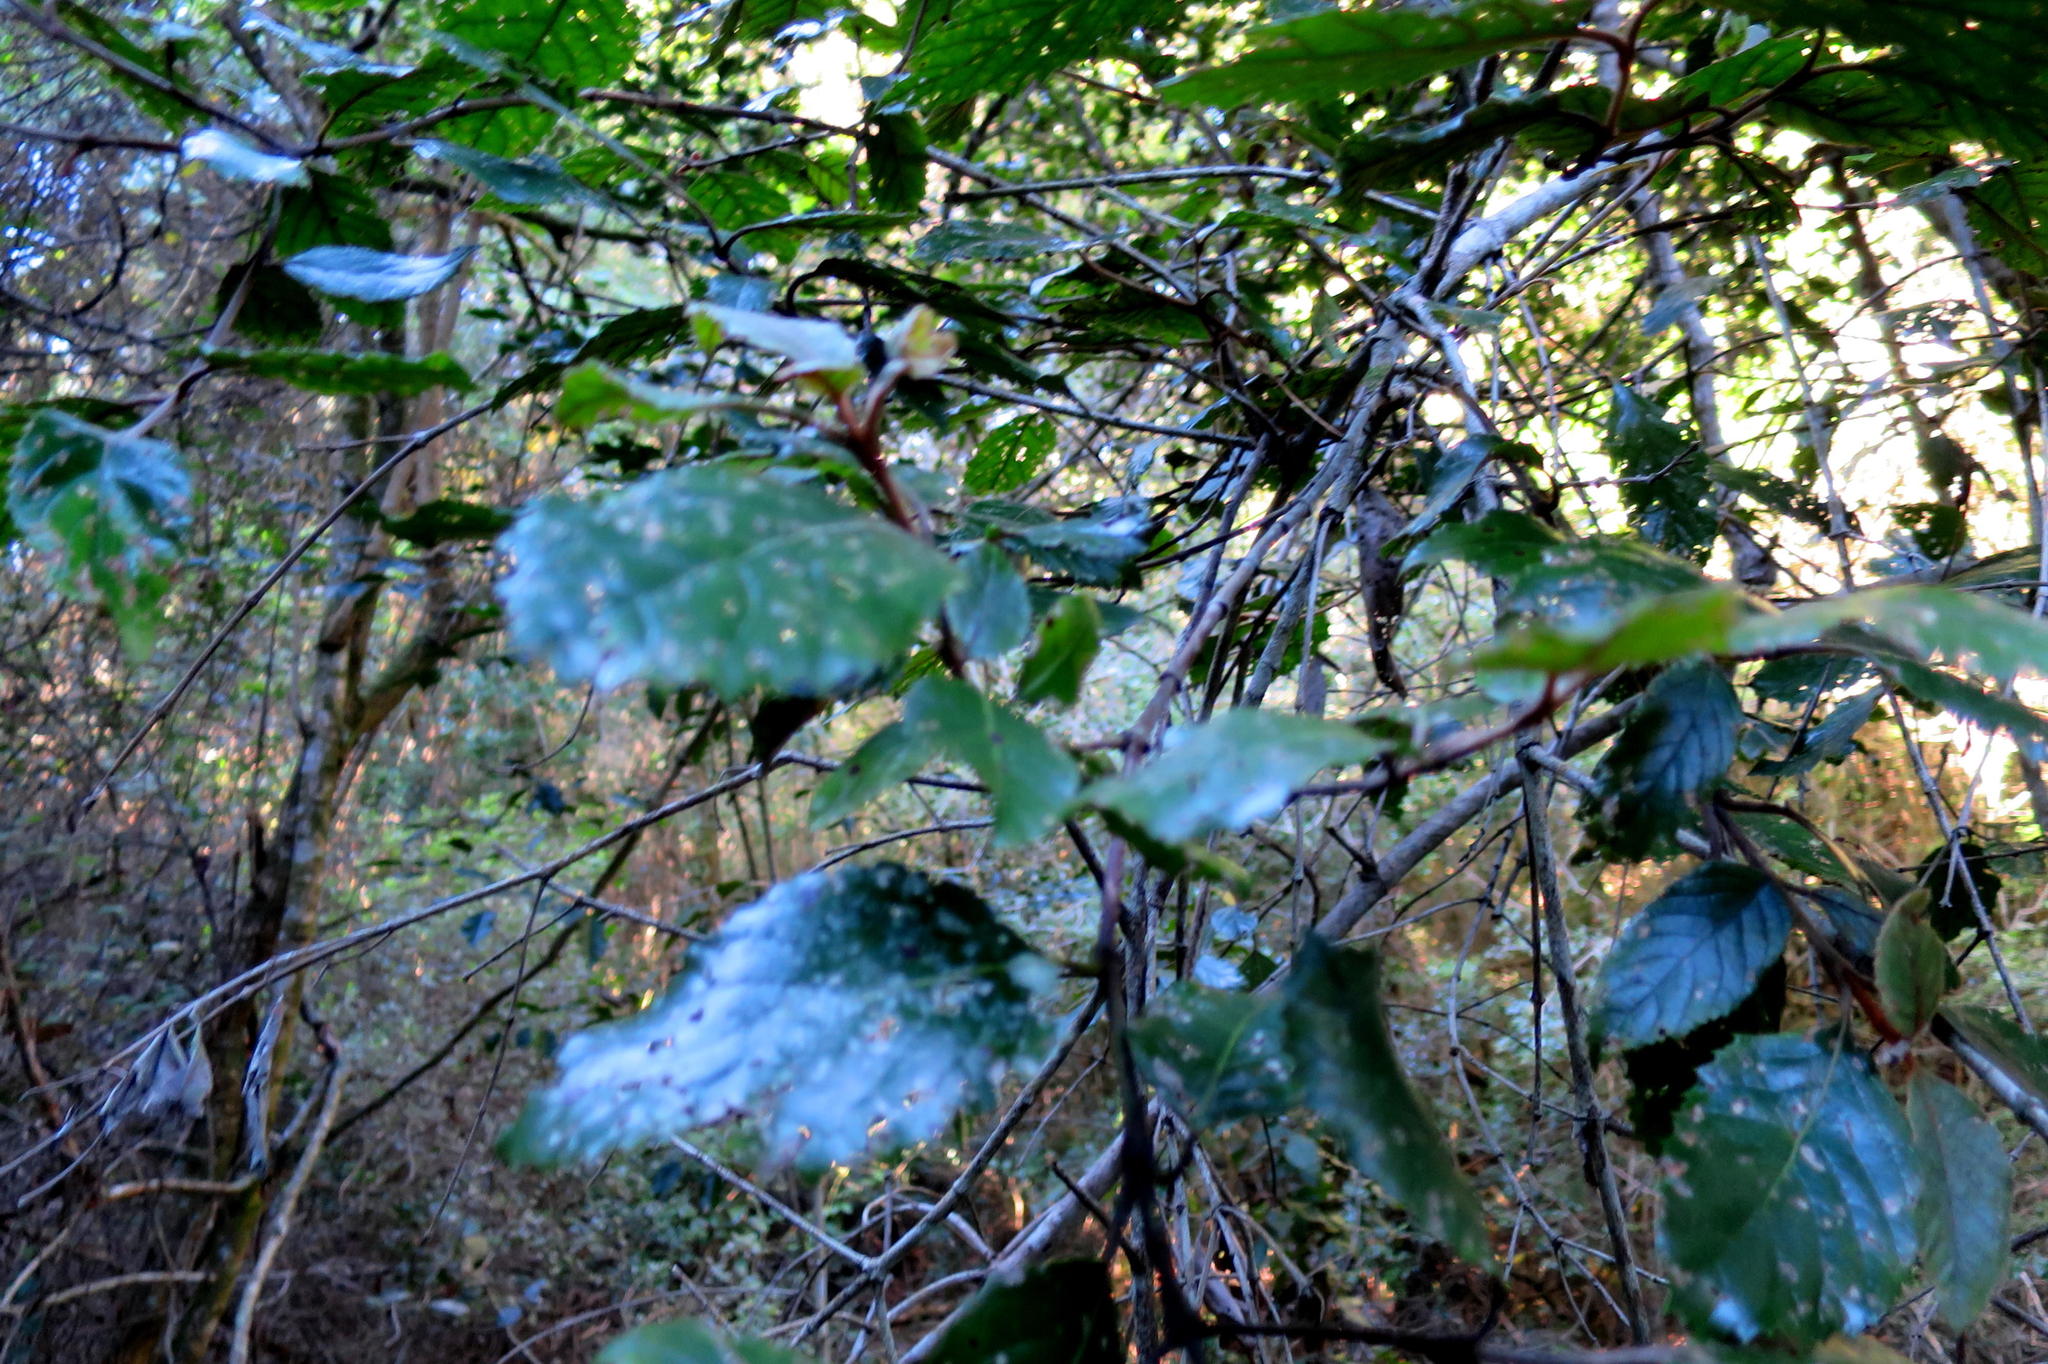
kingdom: Plantae
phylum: Tracheophyta
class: Magnoliopsida
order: Cornales
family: Curtisiaceae
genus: Curtisia
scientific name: Curtisia dentata
